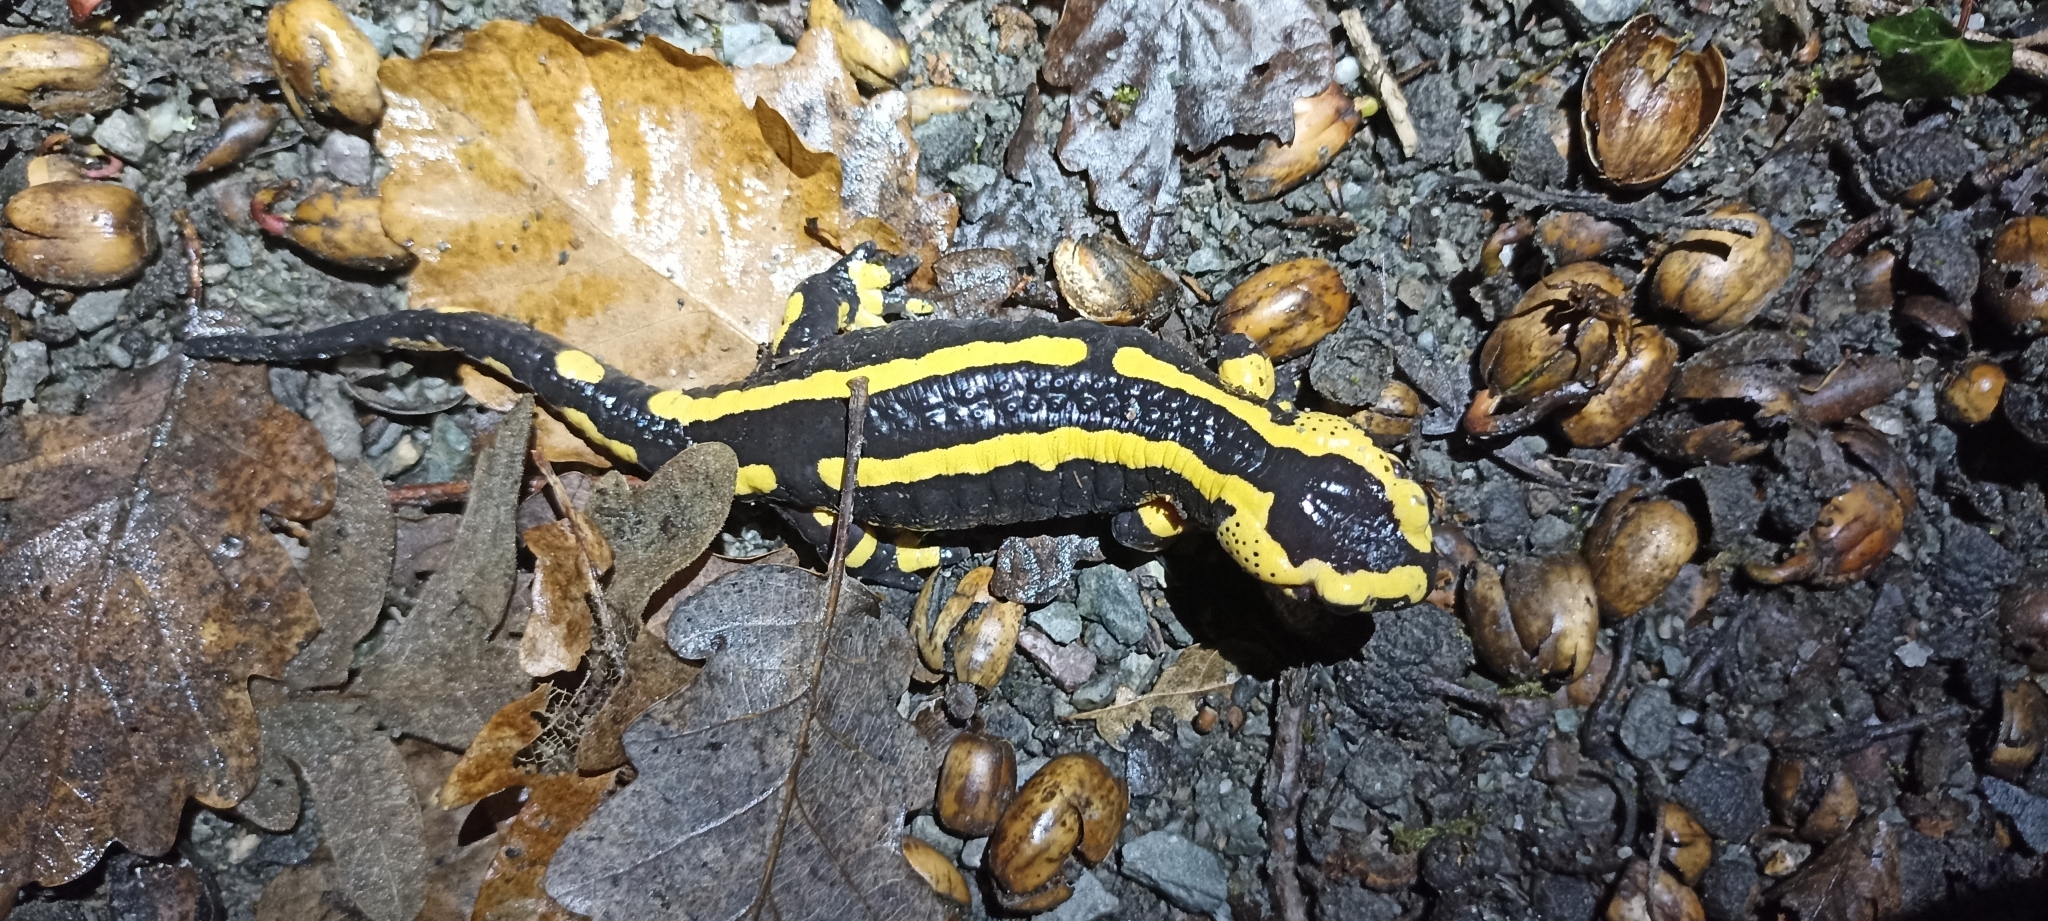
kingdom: Animalia
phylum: Chordata
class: Amphibia
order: Caudata
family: Salamandridae
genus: Salamandra
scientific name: Salamandra salamandra
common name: Fire salamander
